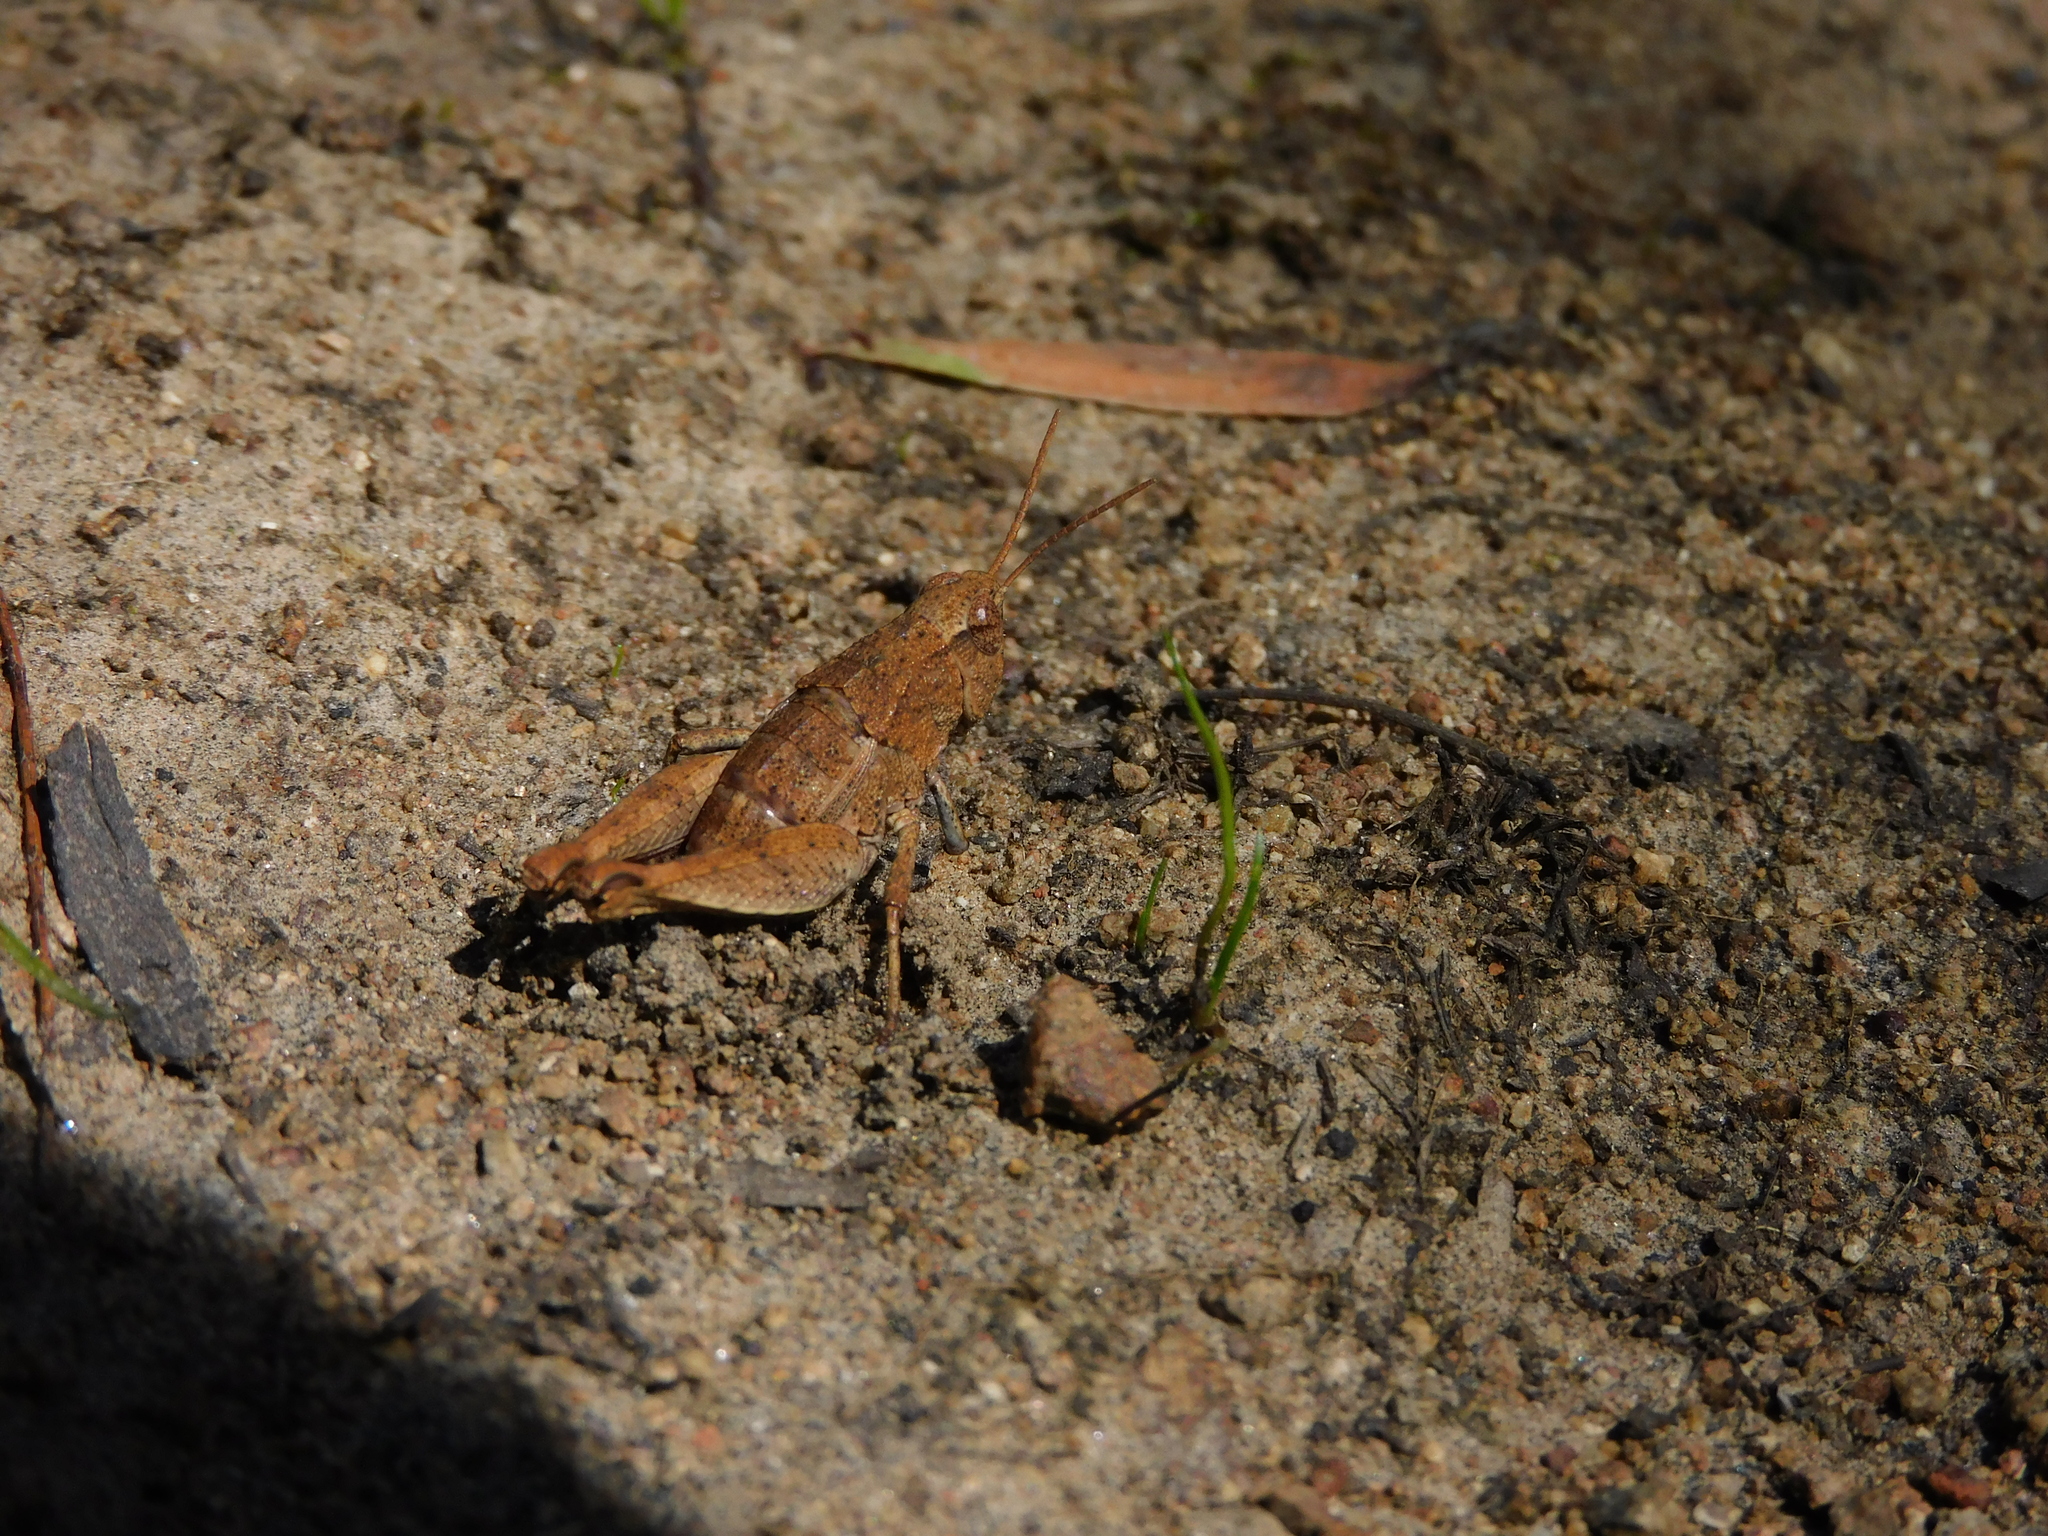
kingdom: Animalia
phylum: Arthropoda
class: Insecta
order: Orthoptera
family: Acrididae
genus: Tasmaniacris
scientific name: Tasmaniacris tasmaniensis
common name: Tasmanian grasshopper
